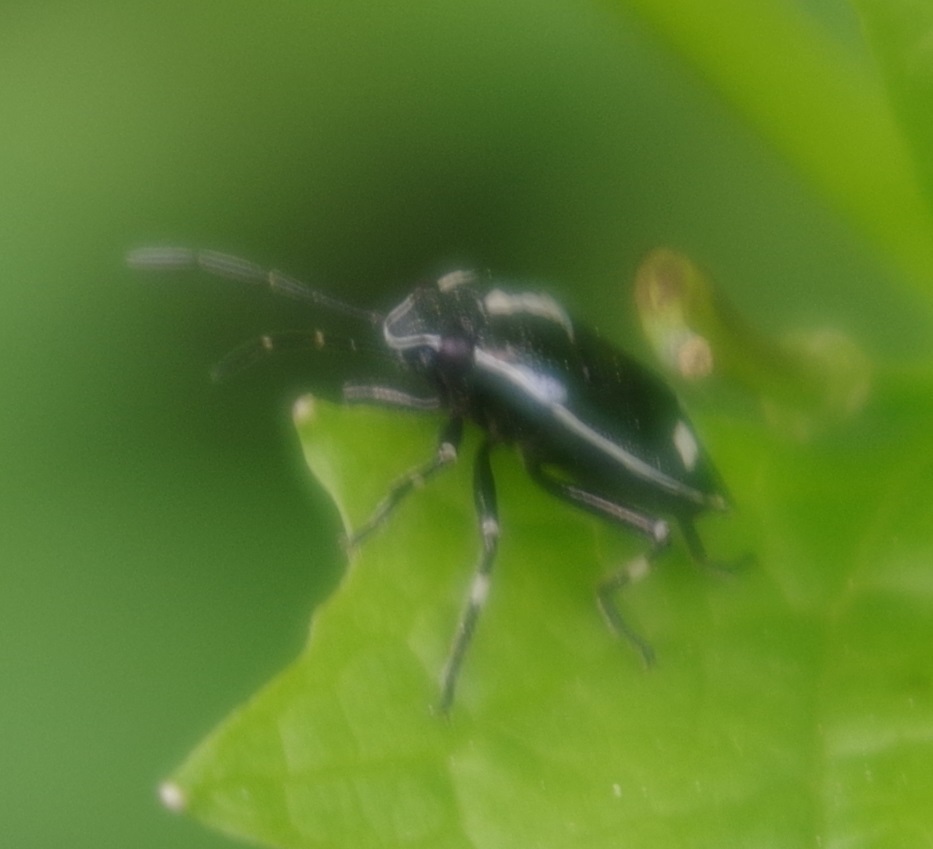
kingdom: Animalia
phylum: Arthropoda
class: Insecta
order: Hemiptera
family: Pentatomidae
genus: Eurydema
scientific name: Eurydema oleracea
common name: Cabbage bug
